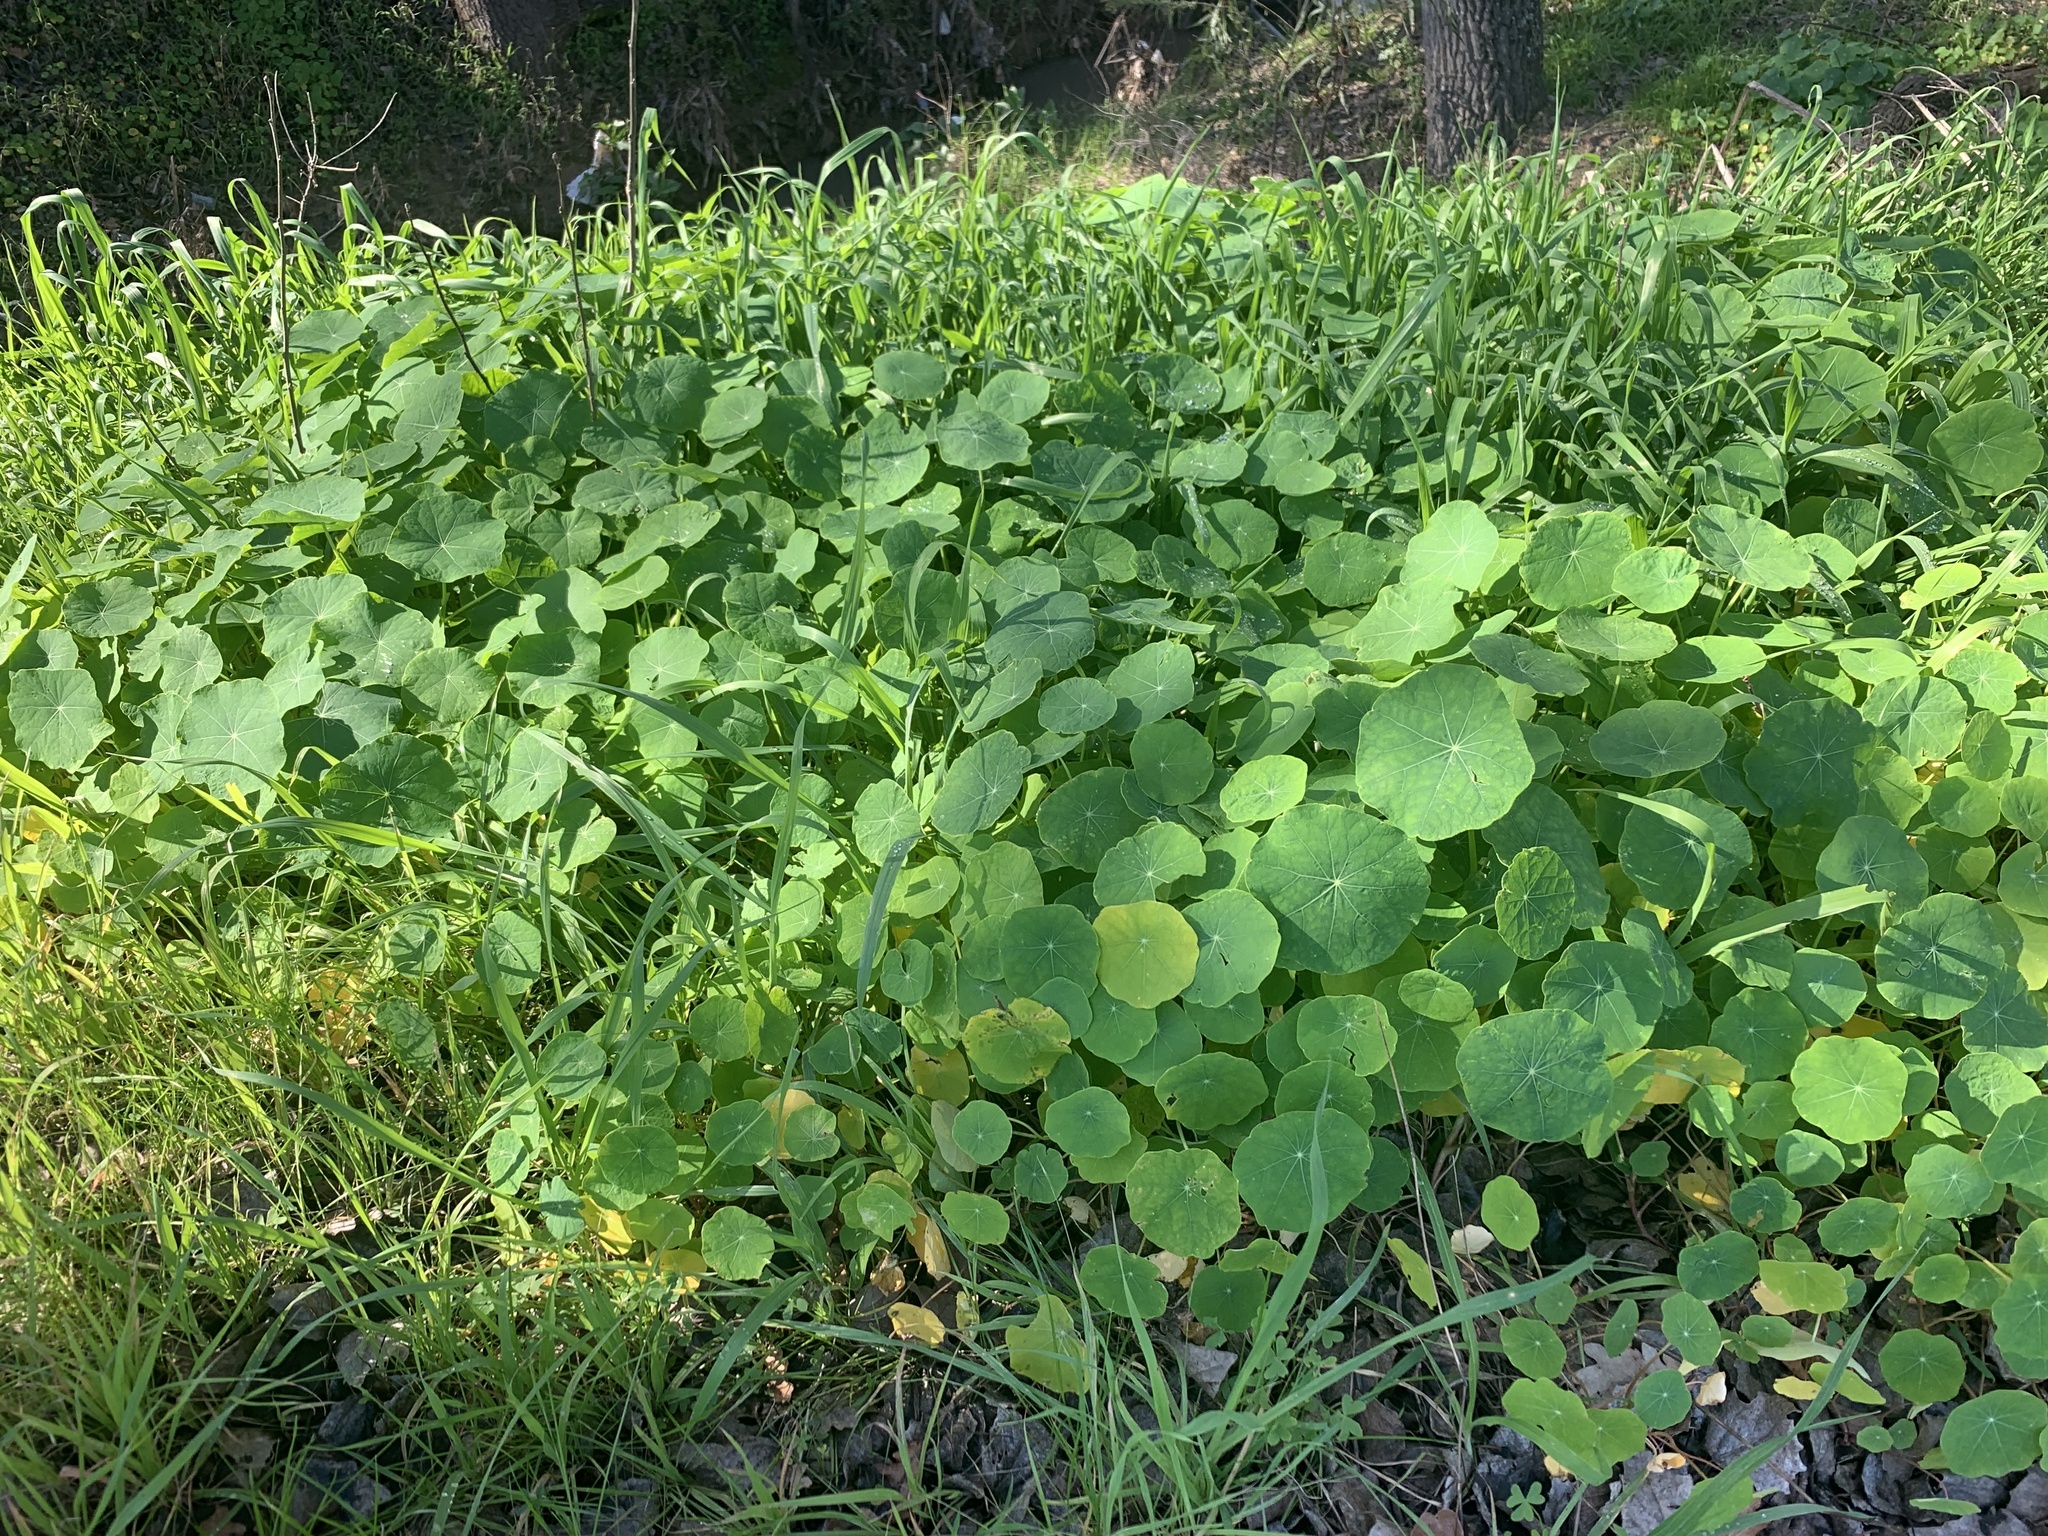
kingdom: Plantae
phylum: Tracheophyta
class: Magnoliopsida
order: Brassicales
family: Tropaeolaceae
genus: Tropaeolum
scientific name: Tropaeolum majus
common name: Nasturtium
